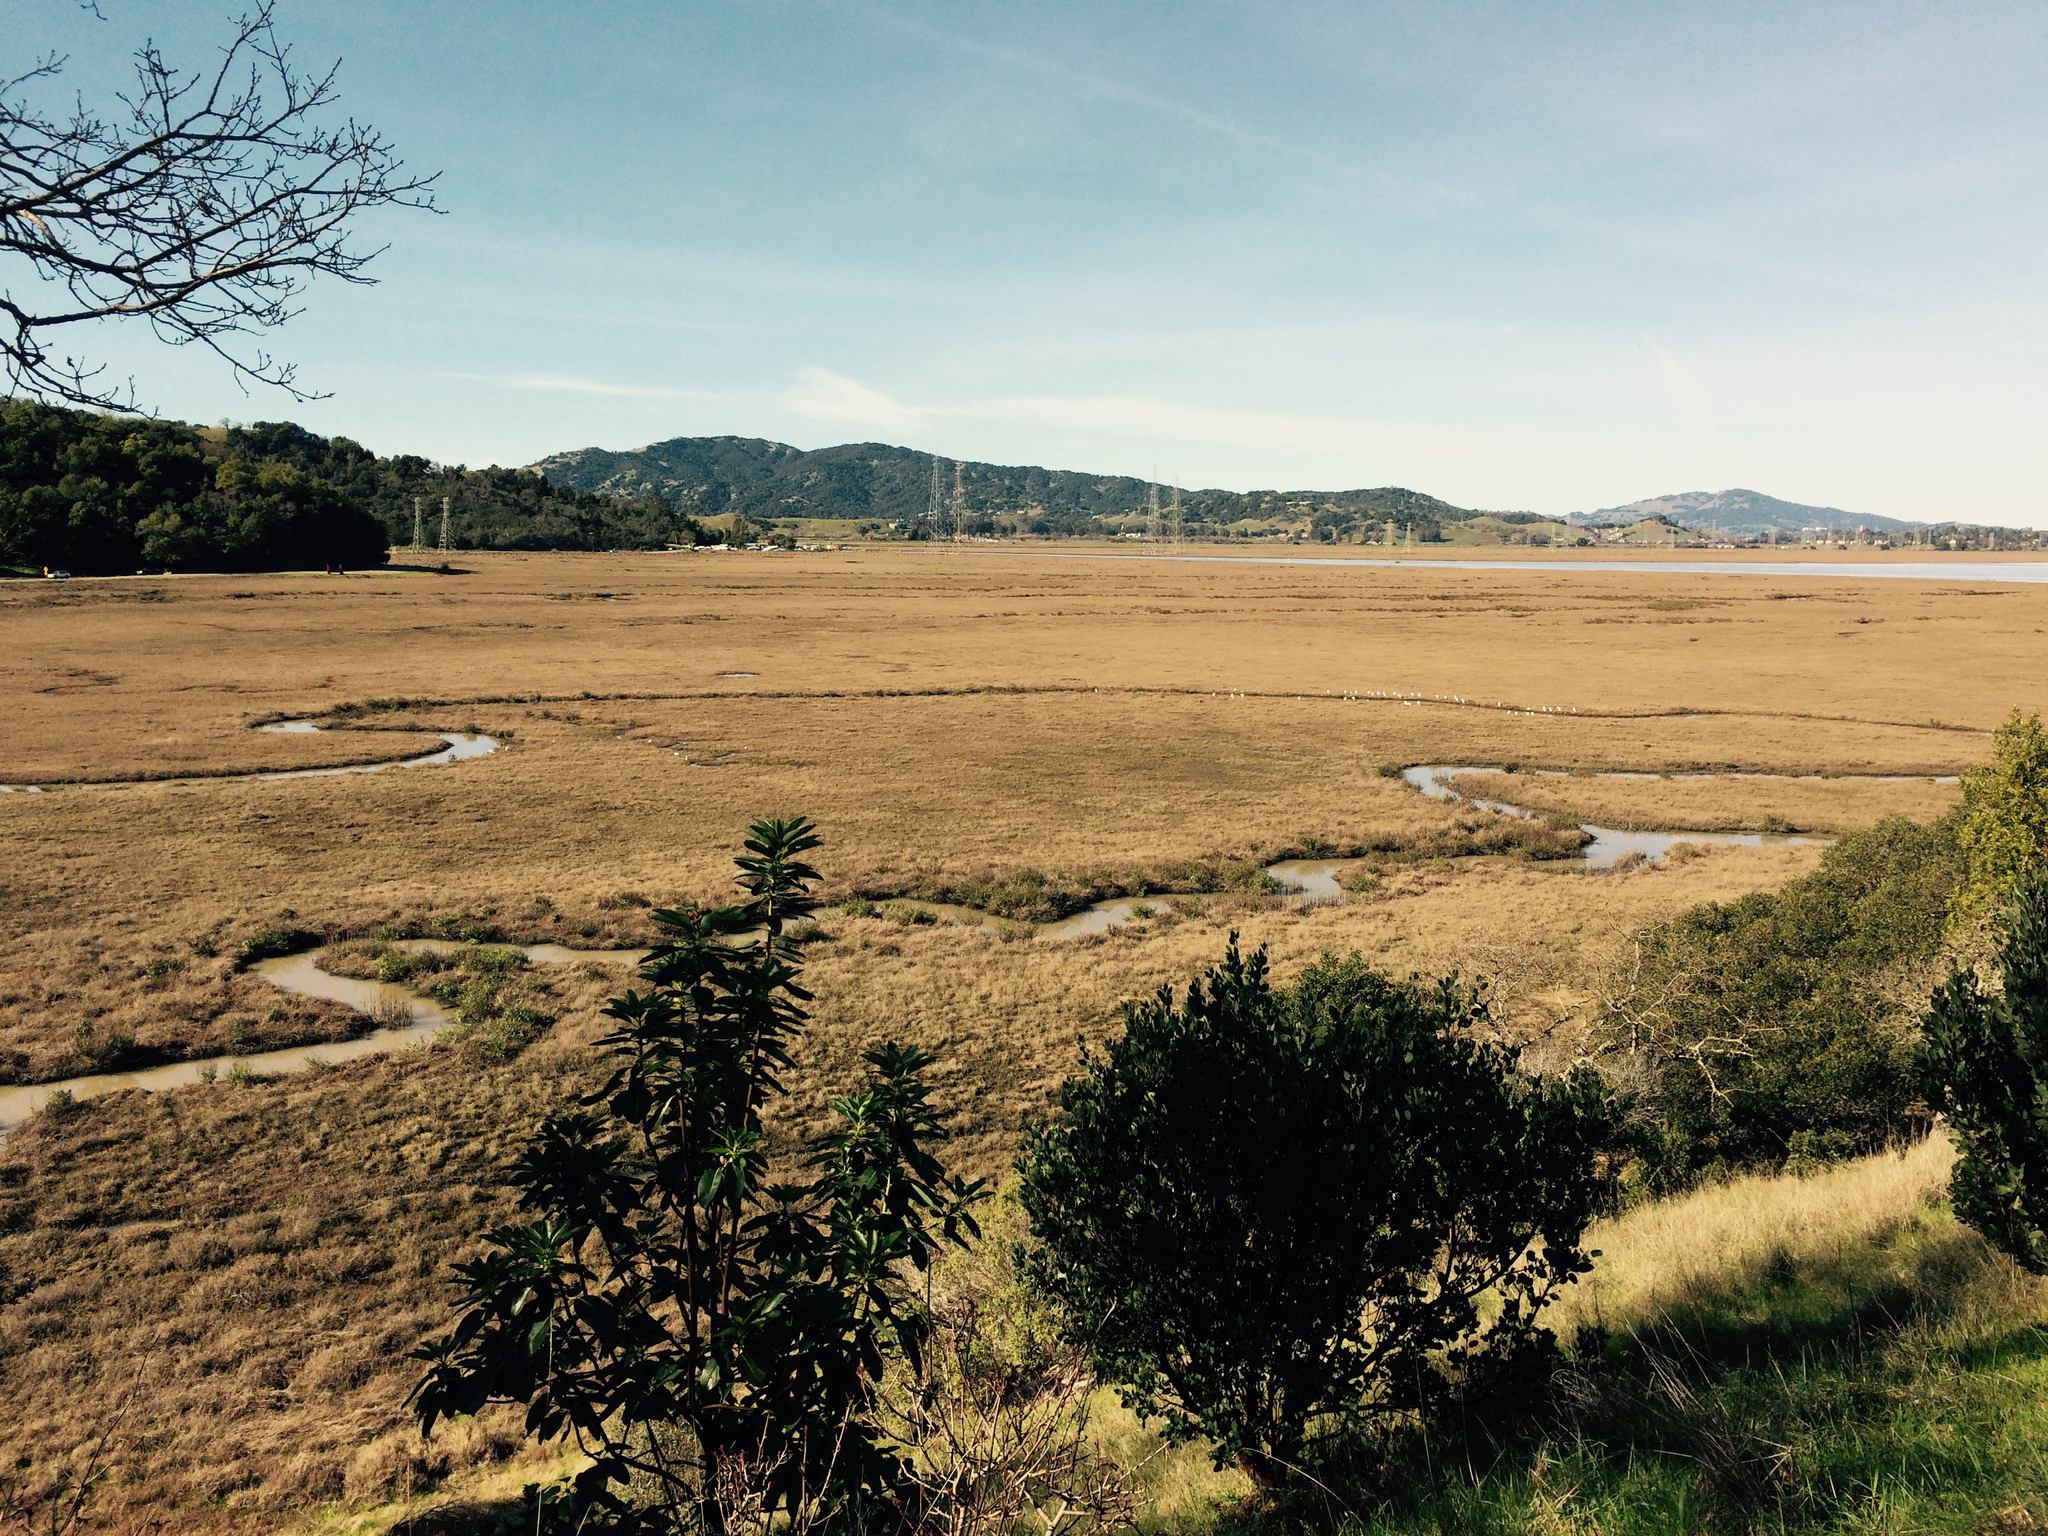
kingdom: Animalia
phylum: Chordata
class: Aves
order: Pelecaniformes
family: Ardeidae
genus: Egretta
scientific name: Egretta thula
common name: Snowy egret
